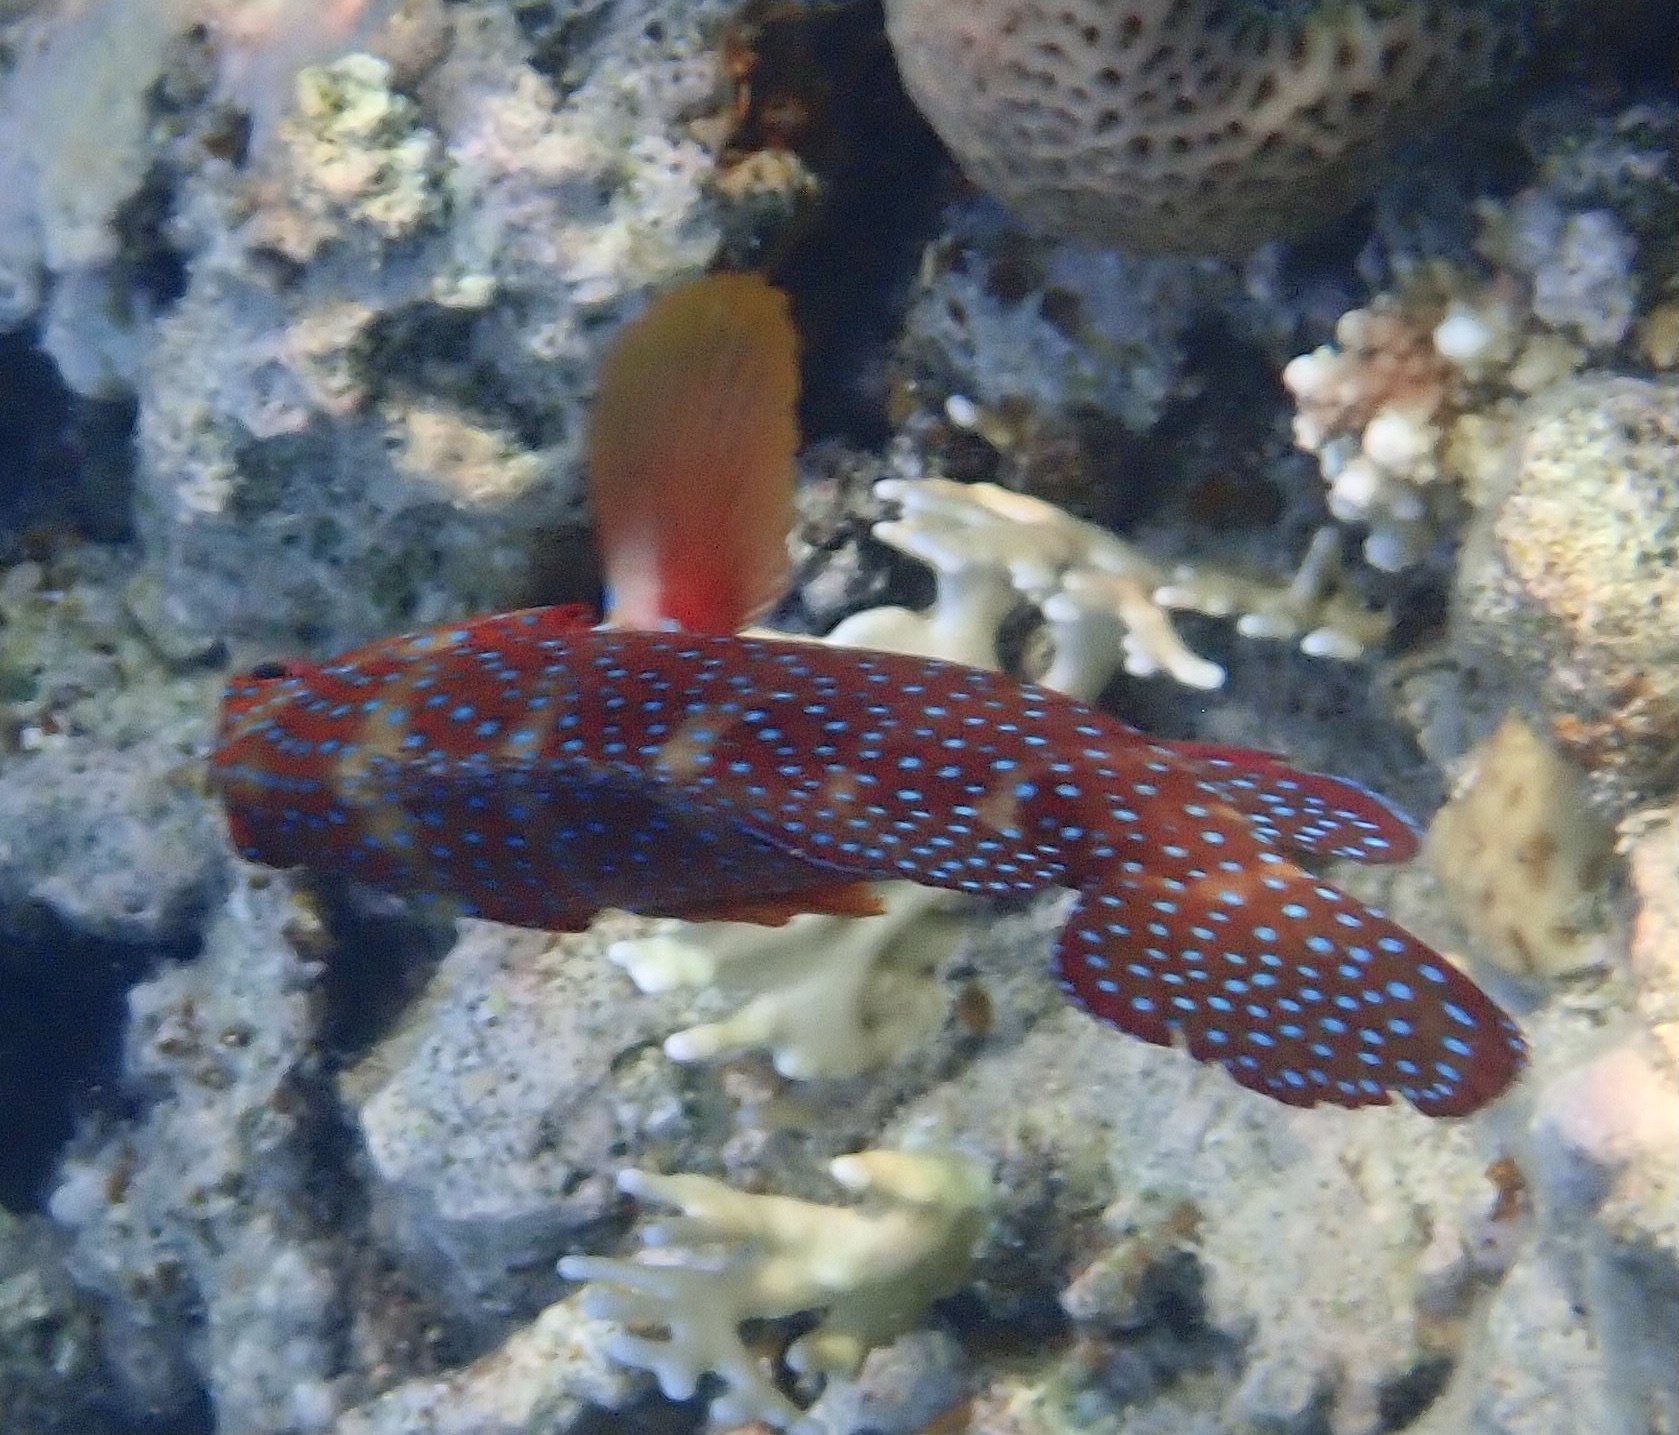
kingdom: Animalia
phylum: Chordata
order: Perciformes
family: Serranidae
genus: Cephalopholis
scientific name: Cephalopholis miniata
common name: Coral hind
